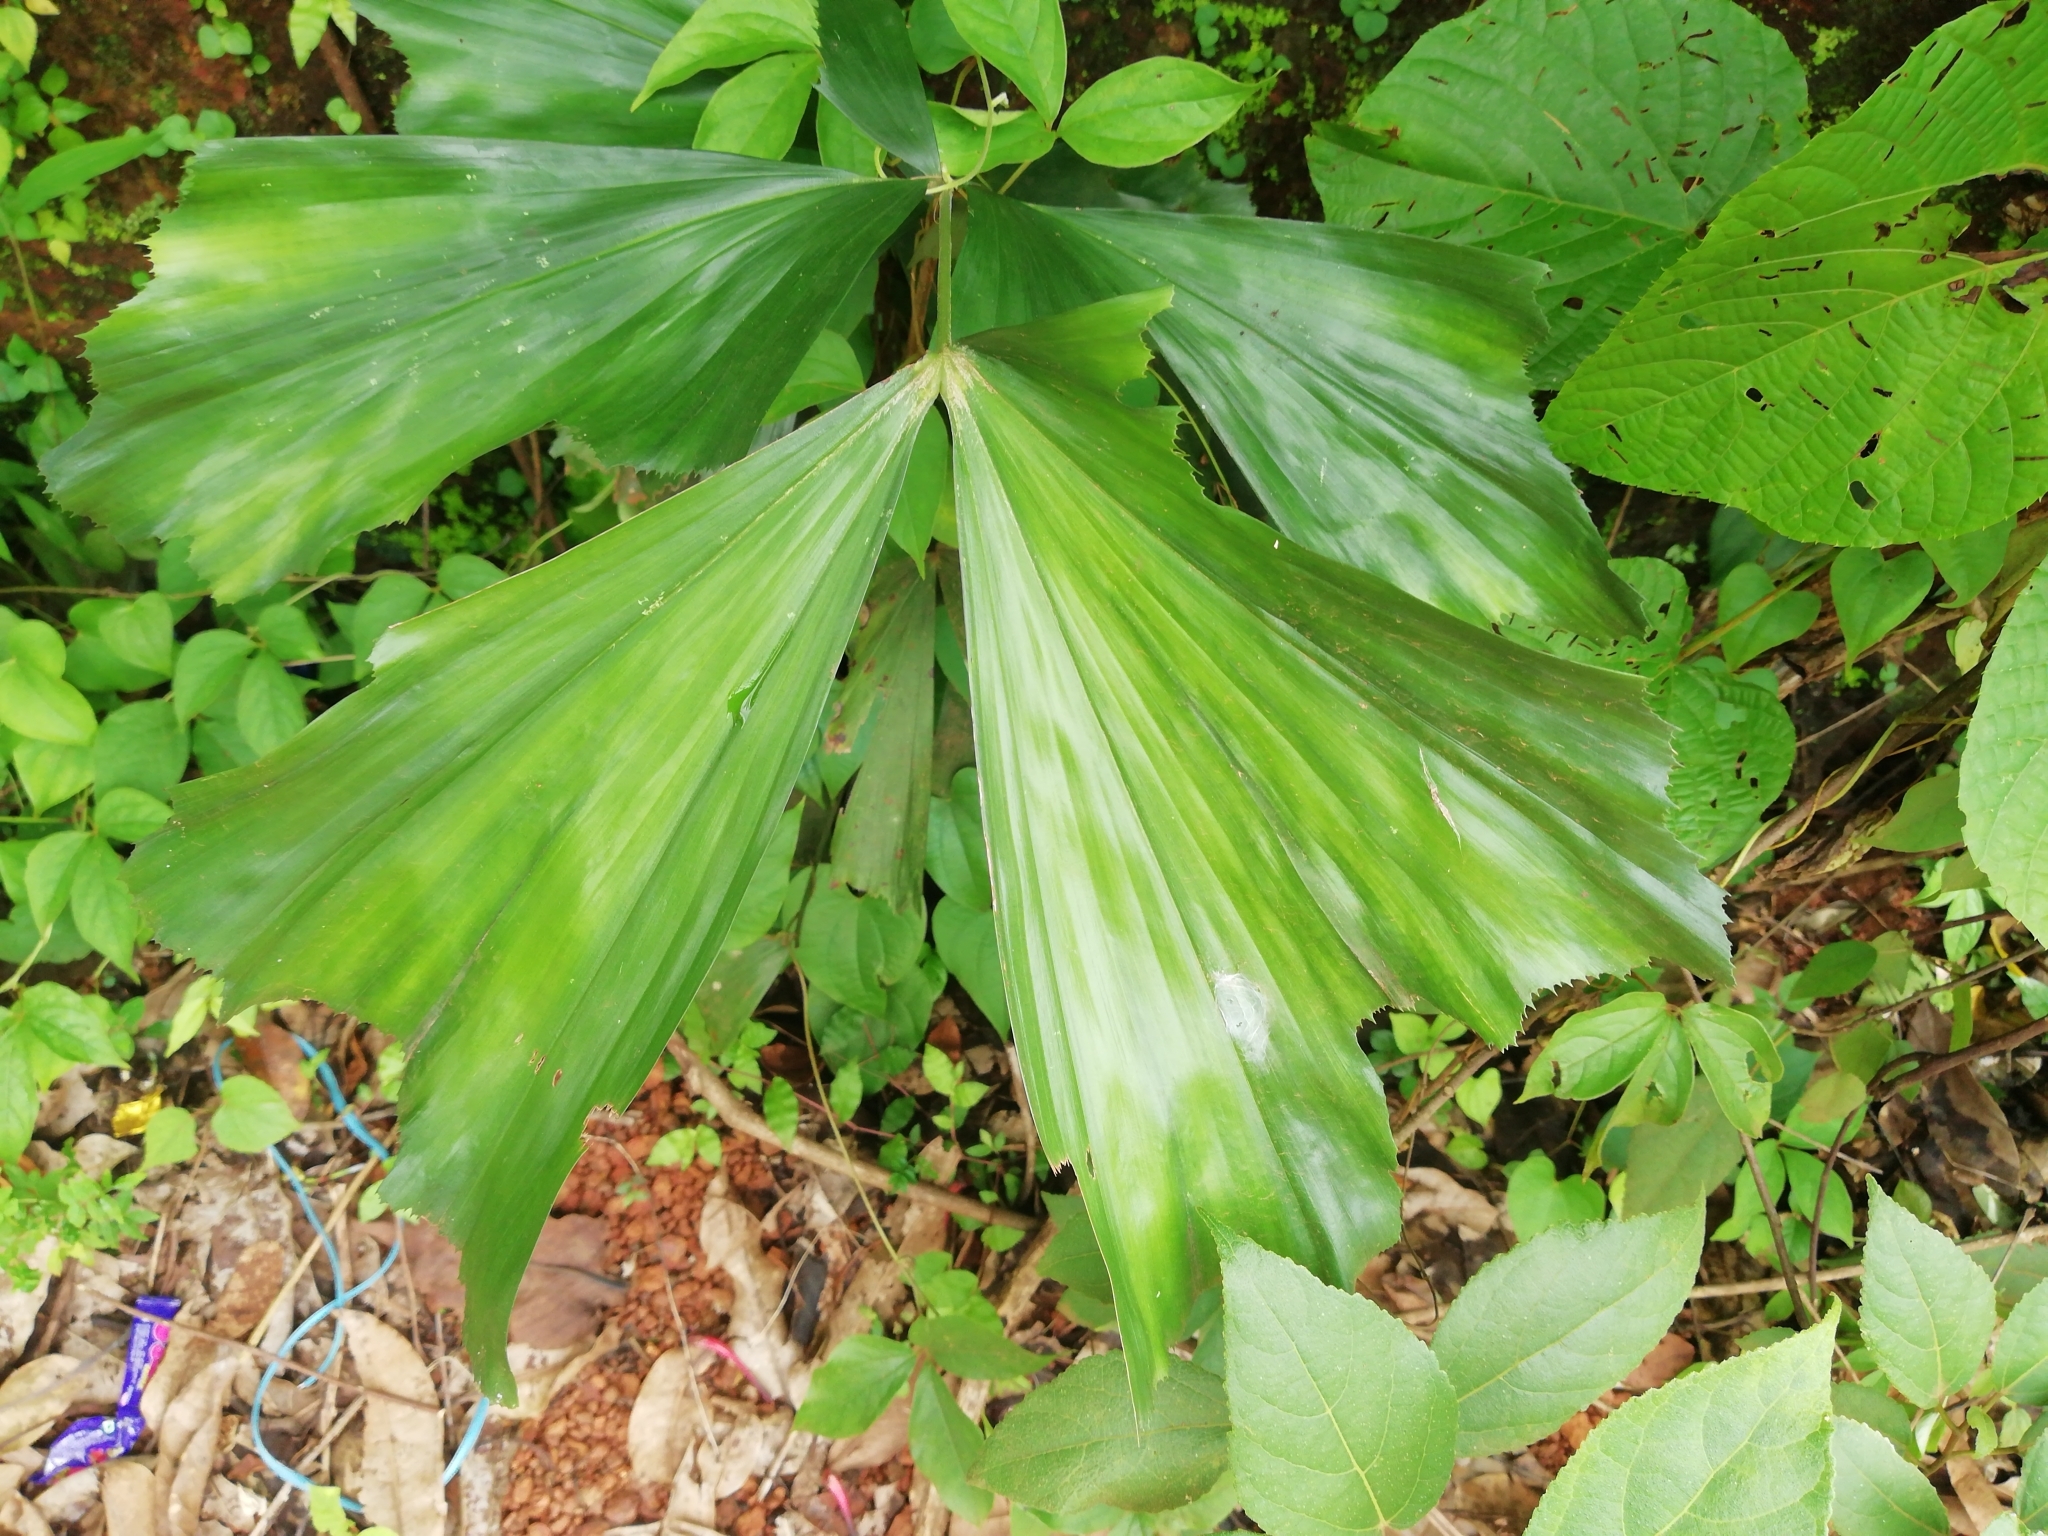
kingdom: Plantae
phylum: Tracheophyta
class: Liliopsida
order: Arecales
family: Arecaceae
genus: Caryota
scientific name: Caryota urens
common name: Jaggery palm
